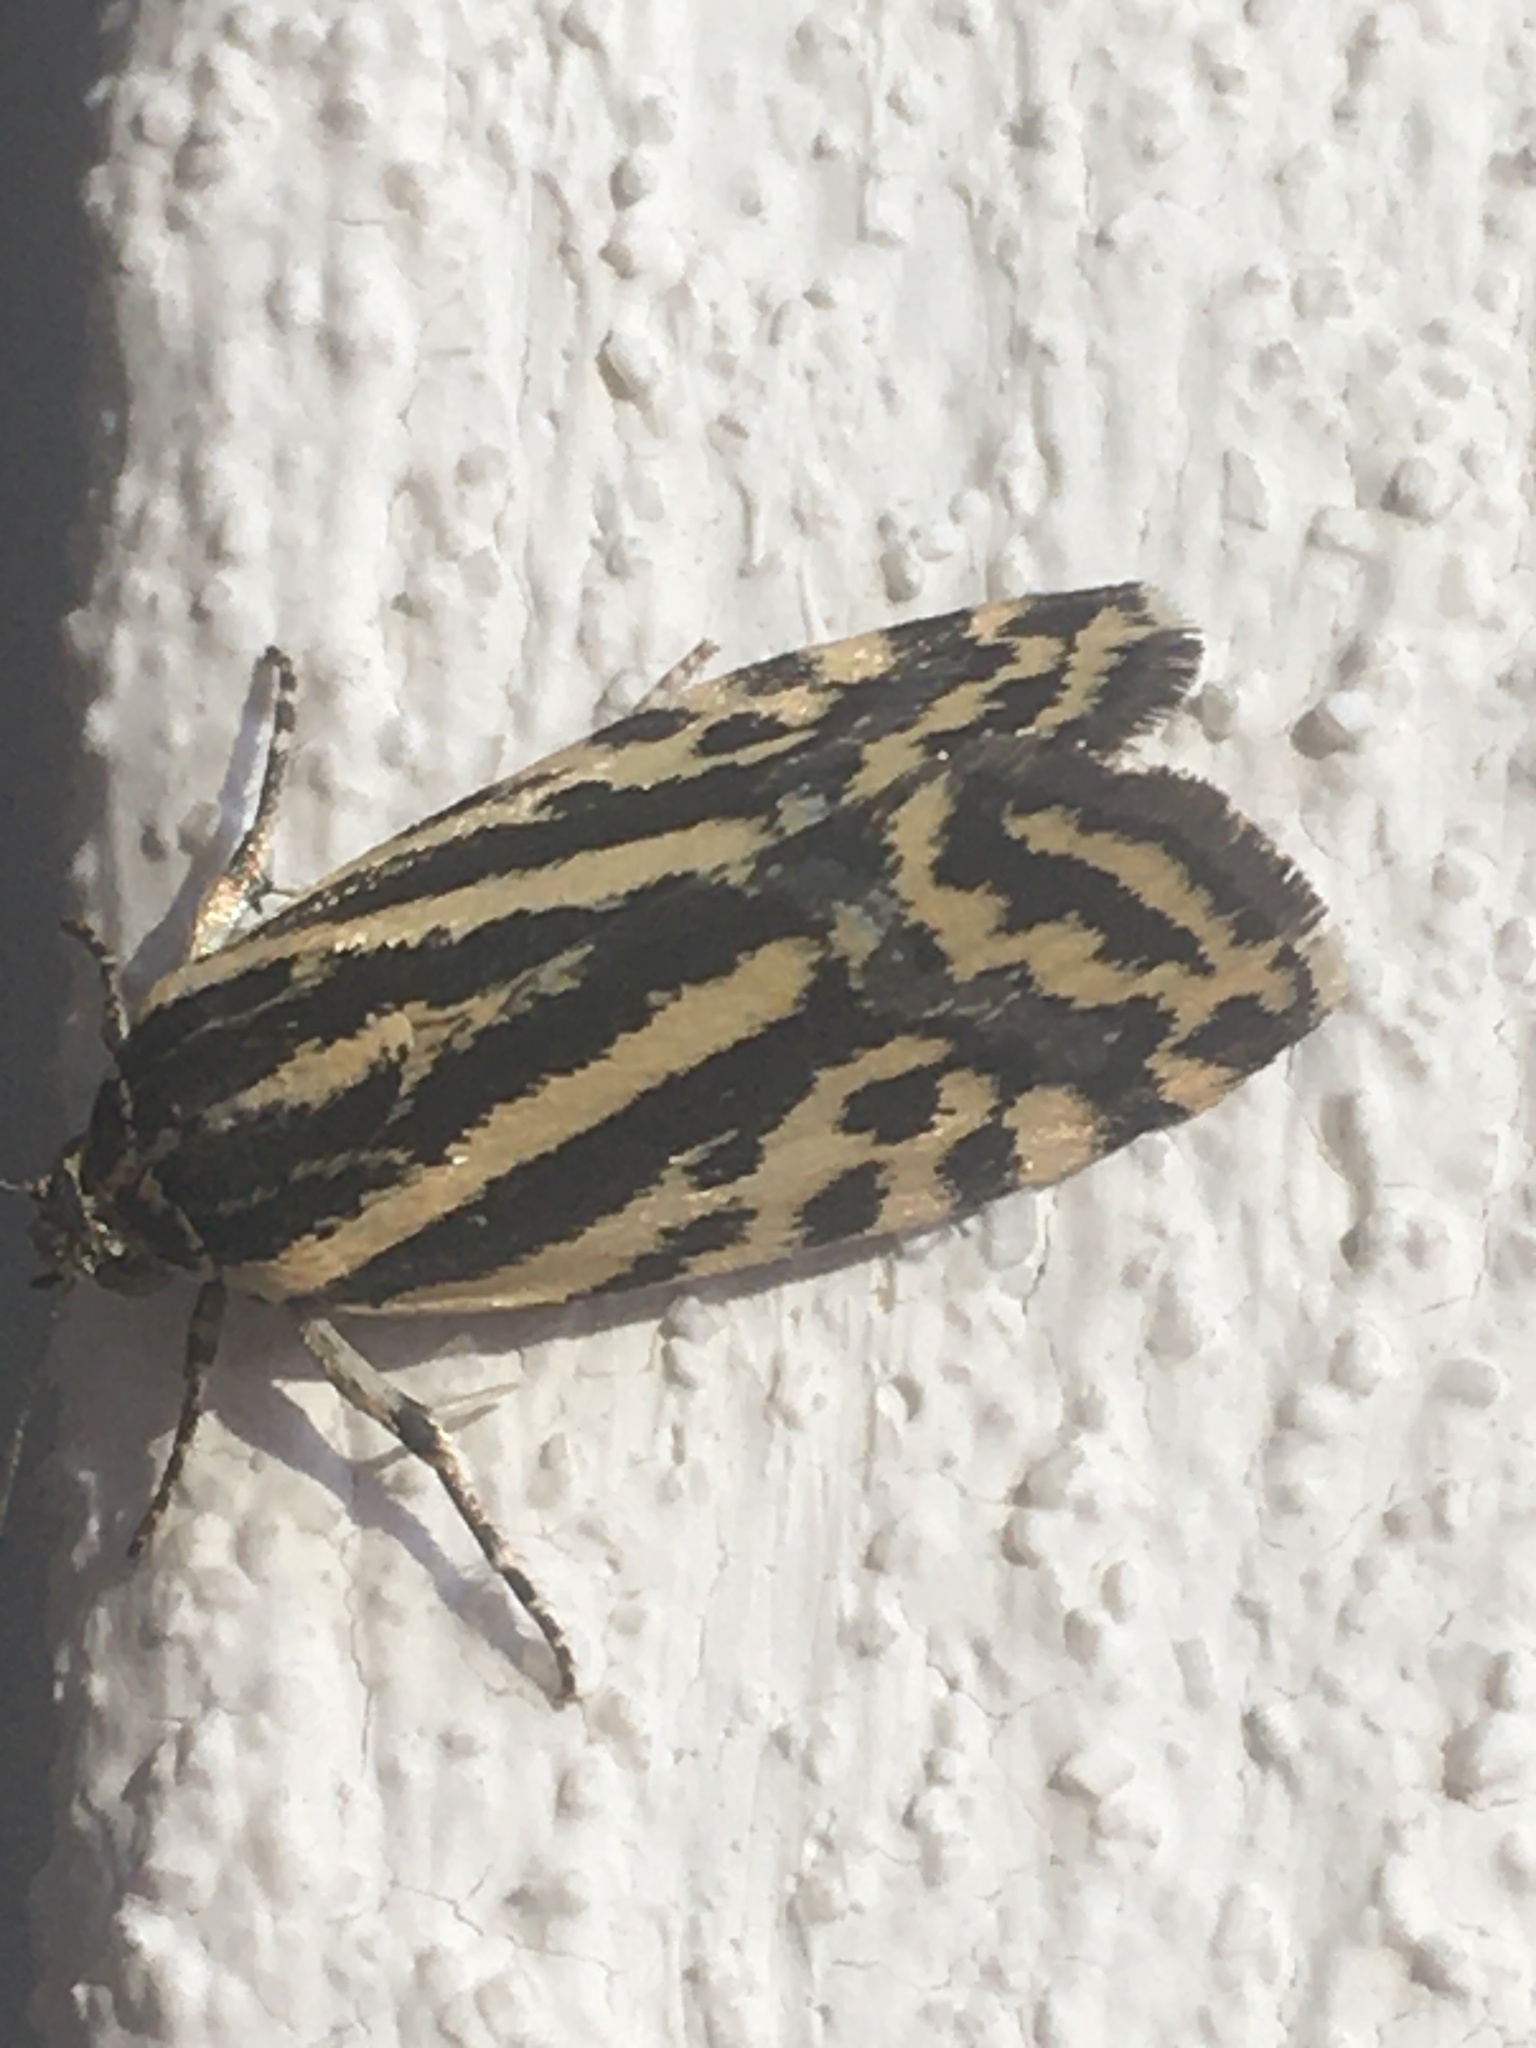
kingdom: Animalia
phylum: Arthropoda
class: Insecta
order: Lepidoptera
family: Noctuidae
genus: Acontia
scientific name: Acontia trabealis
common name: Spotted sulphur
